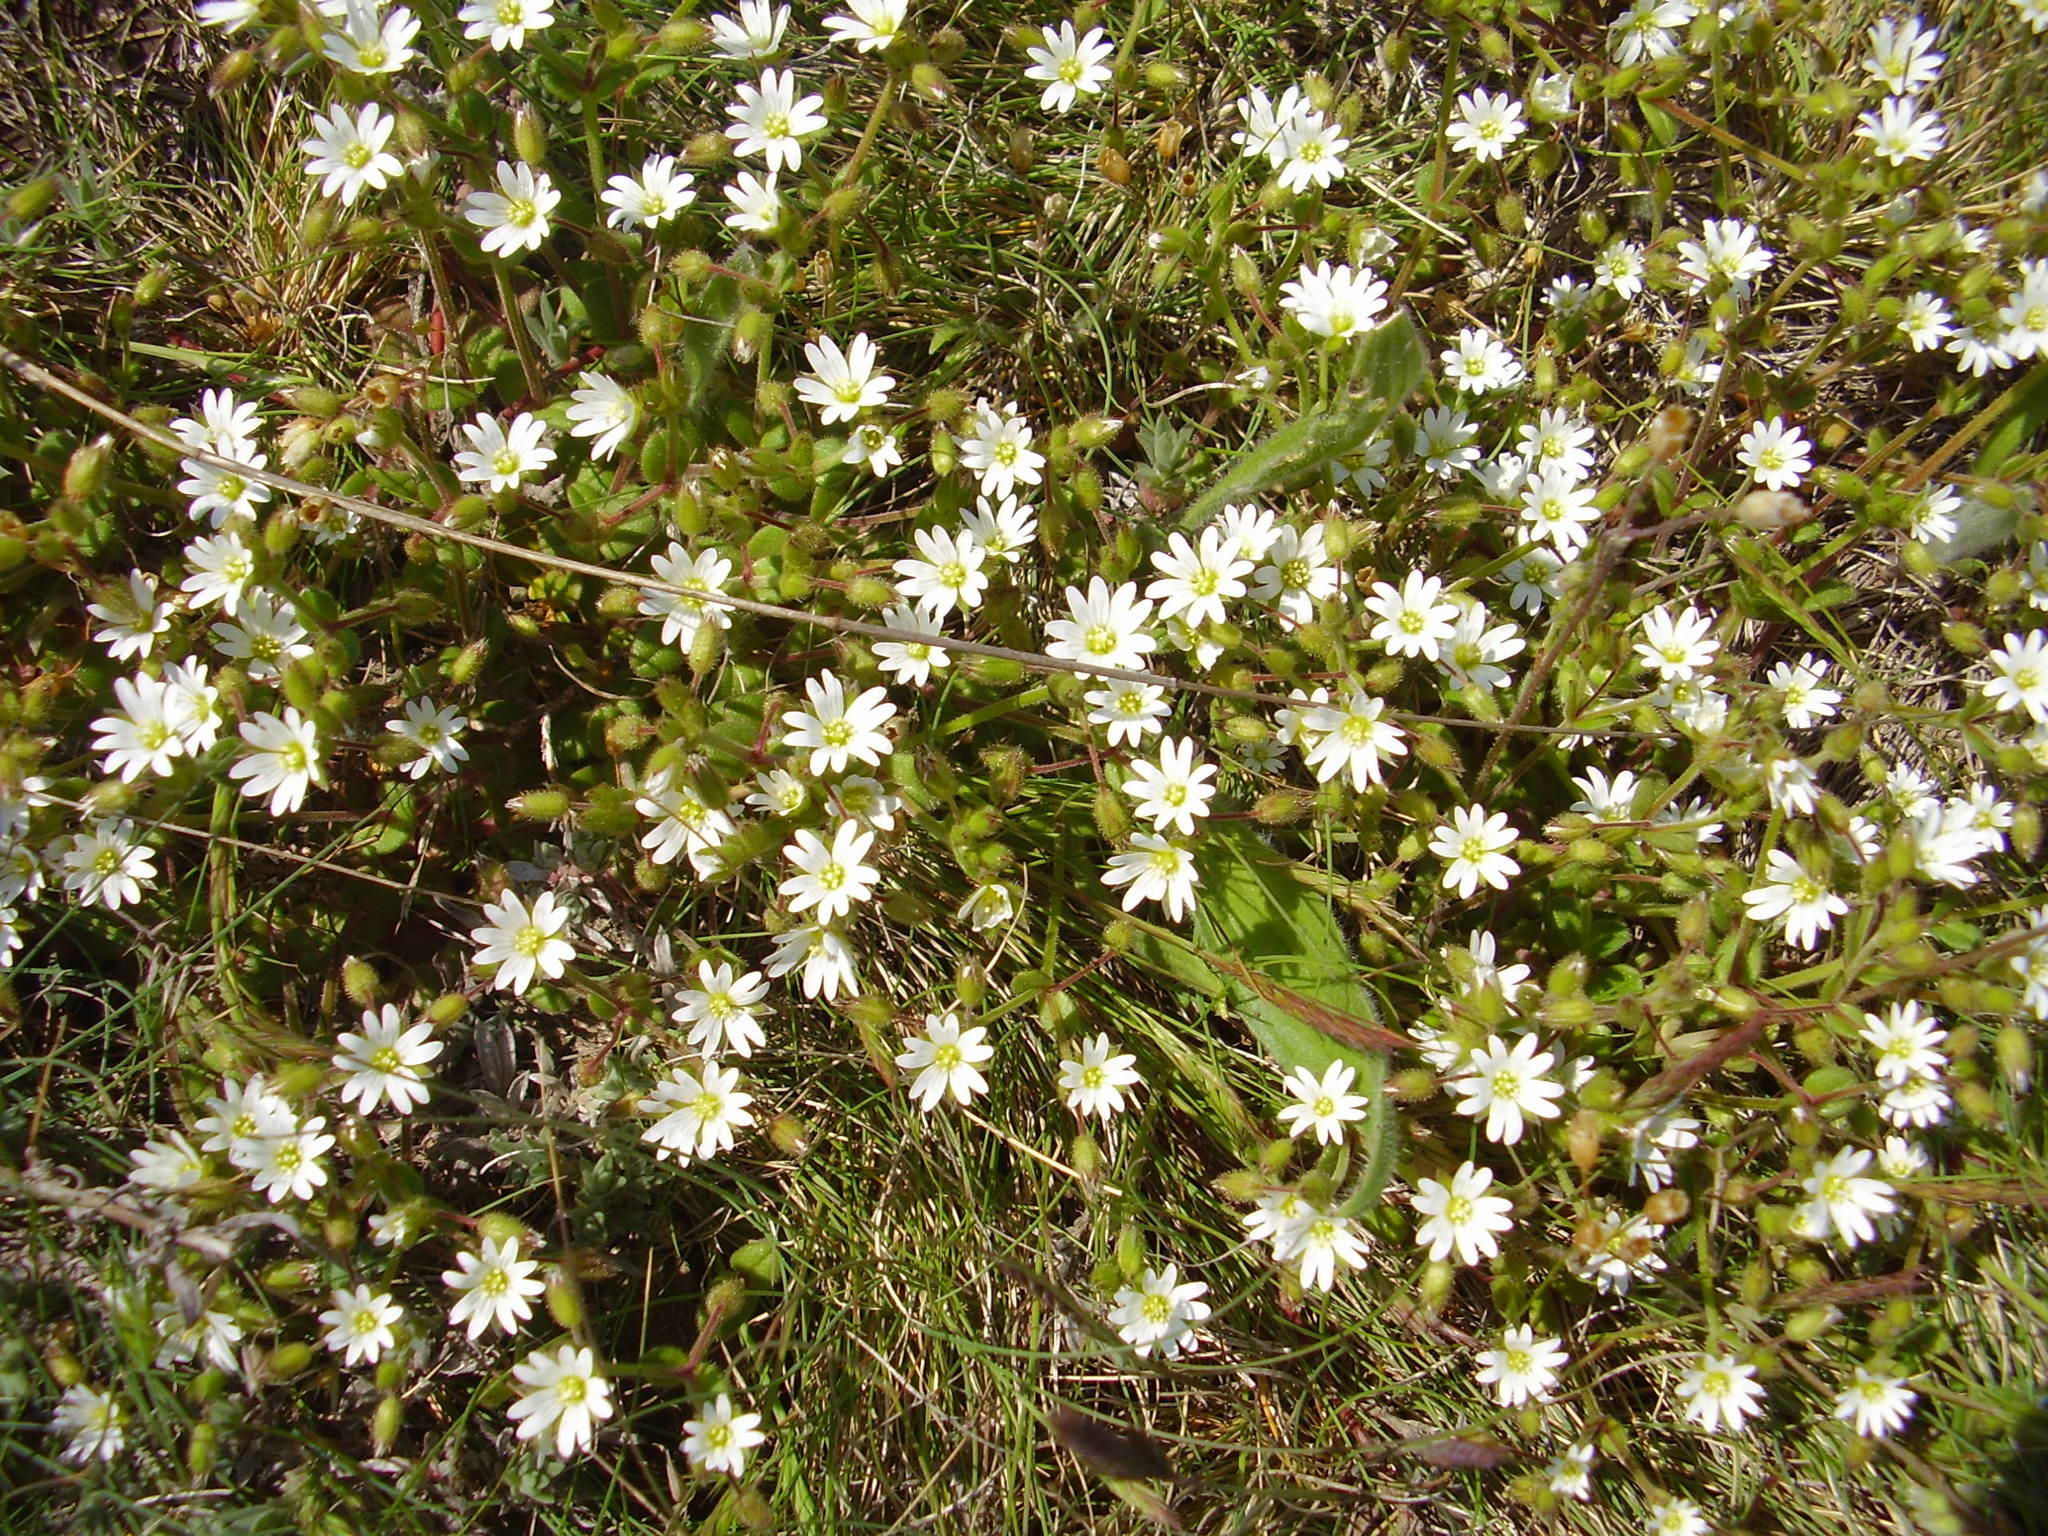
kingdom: Plantae
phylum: Tracheophyta
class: Magnoliopsida
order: Caryophyllales
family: Caryophyllaceae
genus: Dichodon
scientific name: Dichodon viscidum
